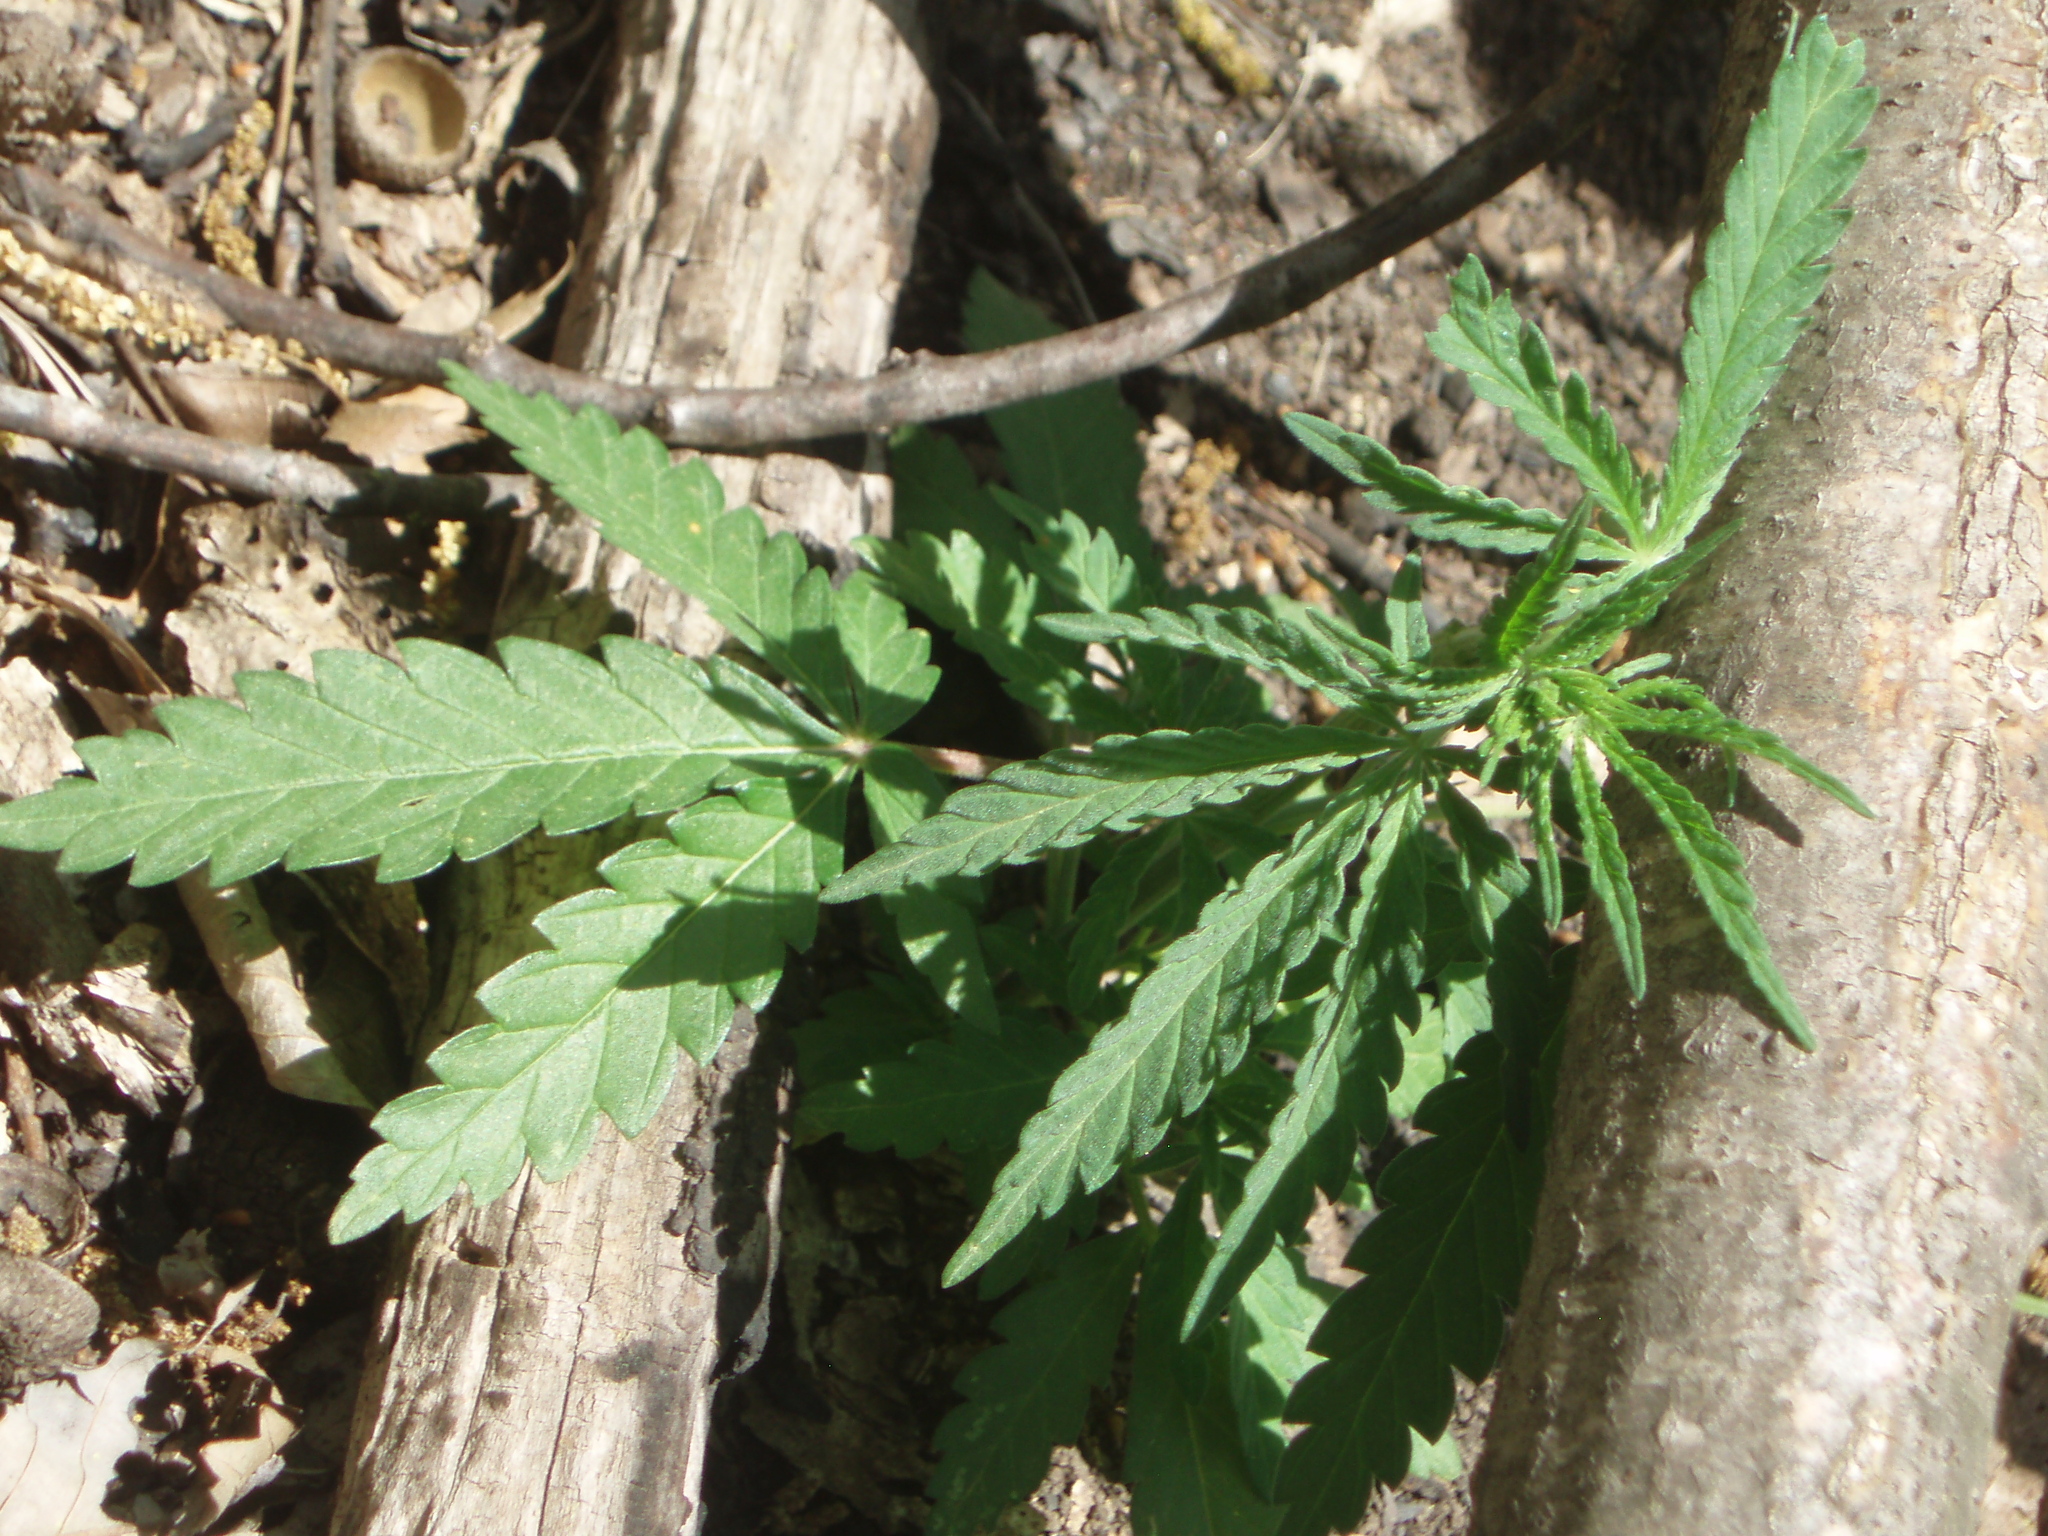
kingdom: Plantae
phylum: Tracheophyta
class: Magnoliopsida
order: Rosales
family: Cannabaceae
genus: Cannabis
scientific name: Cannabis sativa
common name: Hemp
